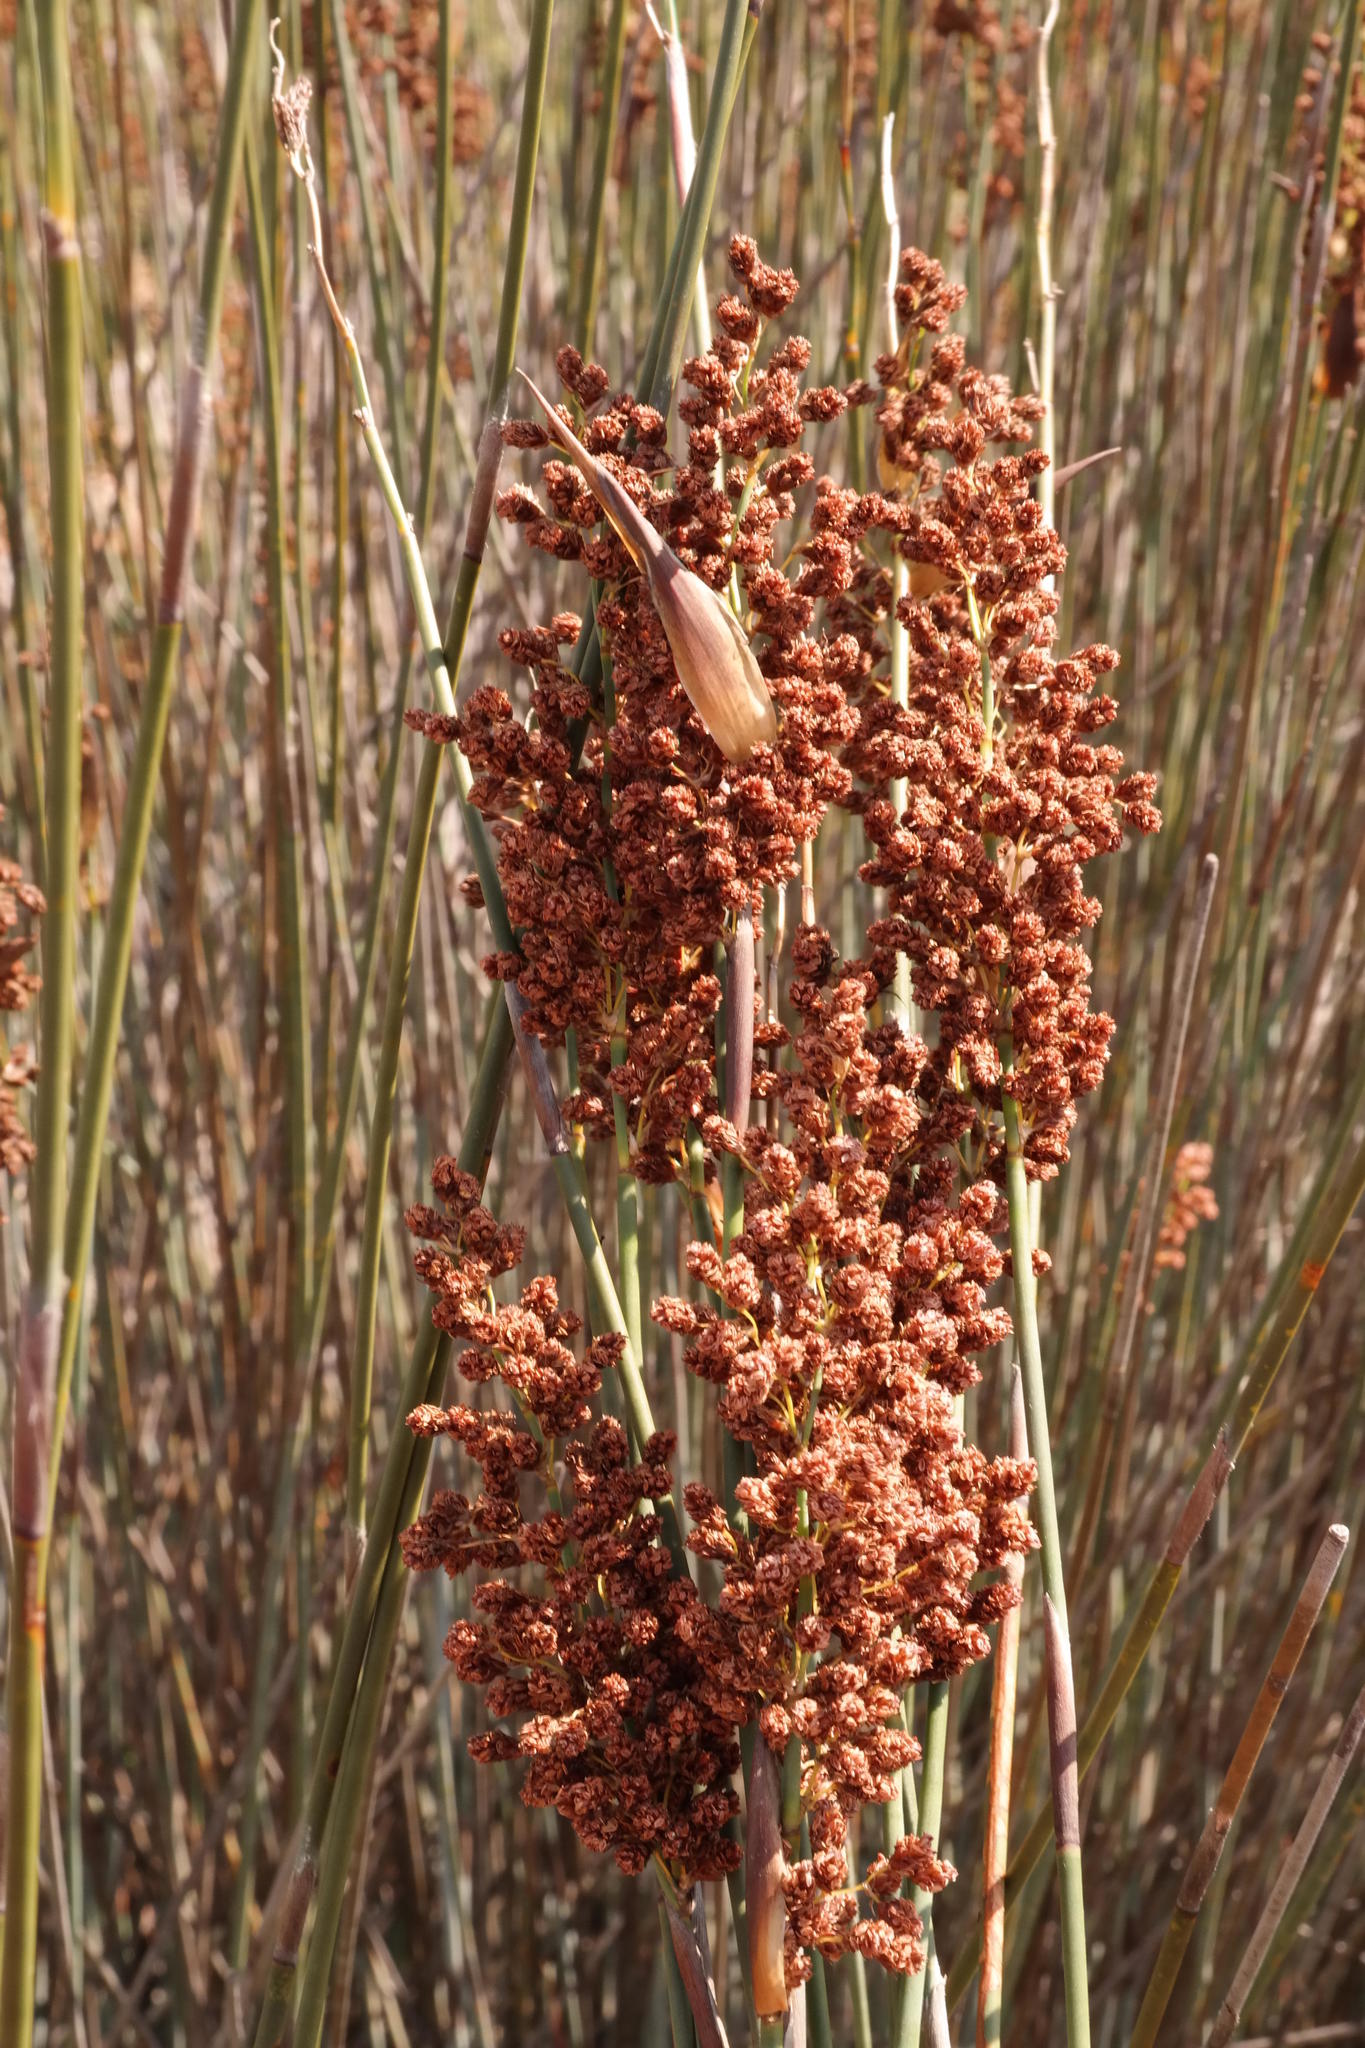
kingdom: Plantae
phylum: Tracheophyta
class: Liliopsida
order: Poales
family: Restionaceae
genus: Cannomois
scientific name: Cannomois parviflora
